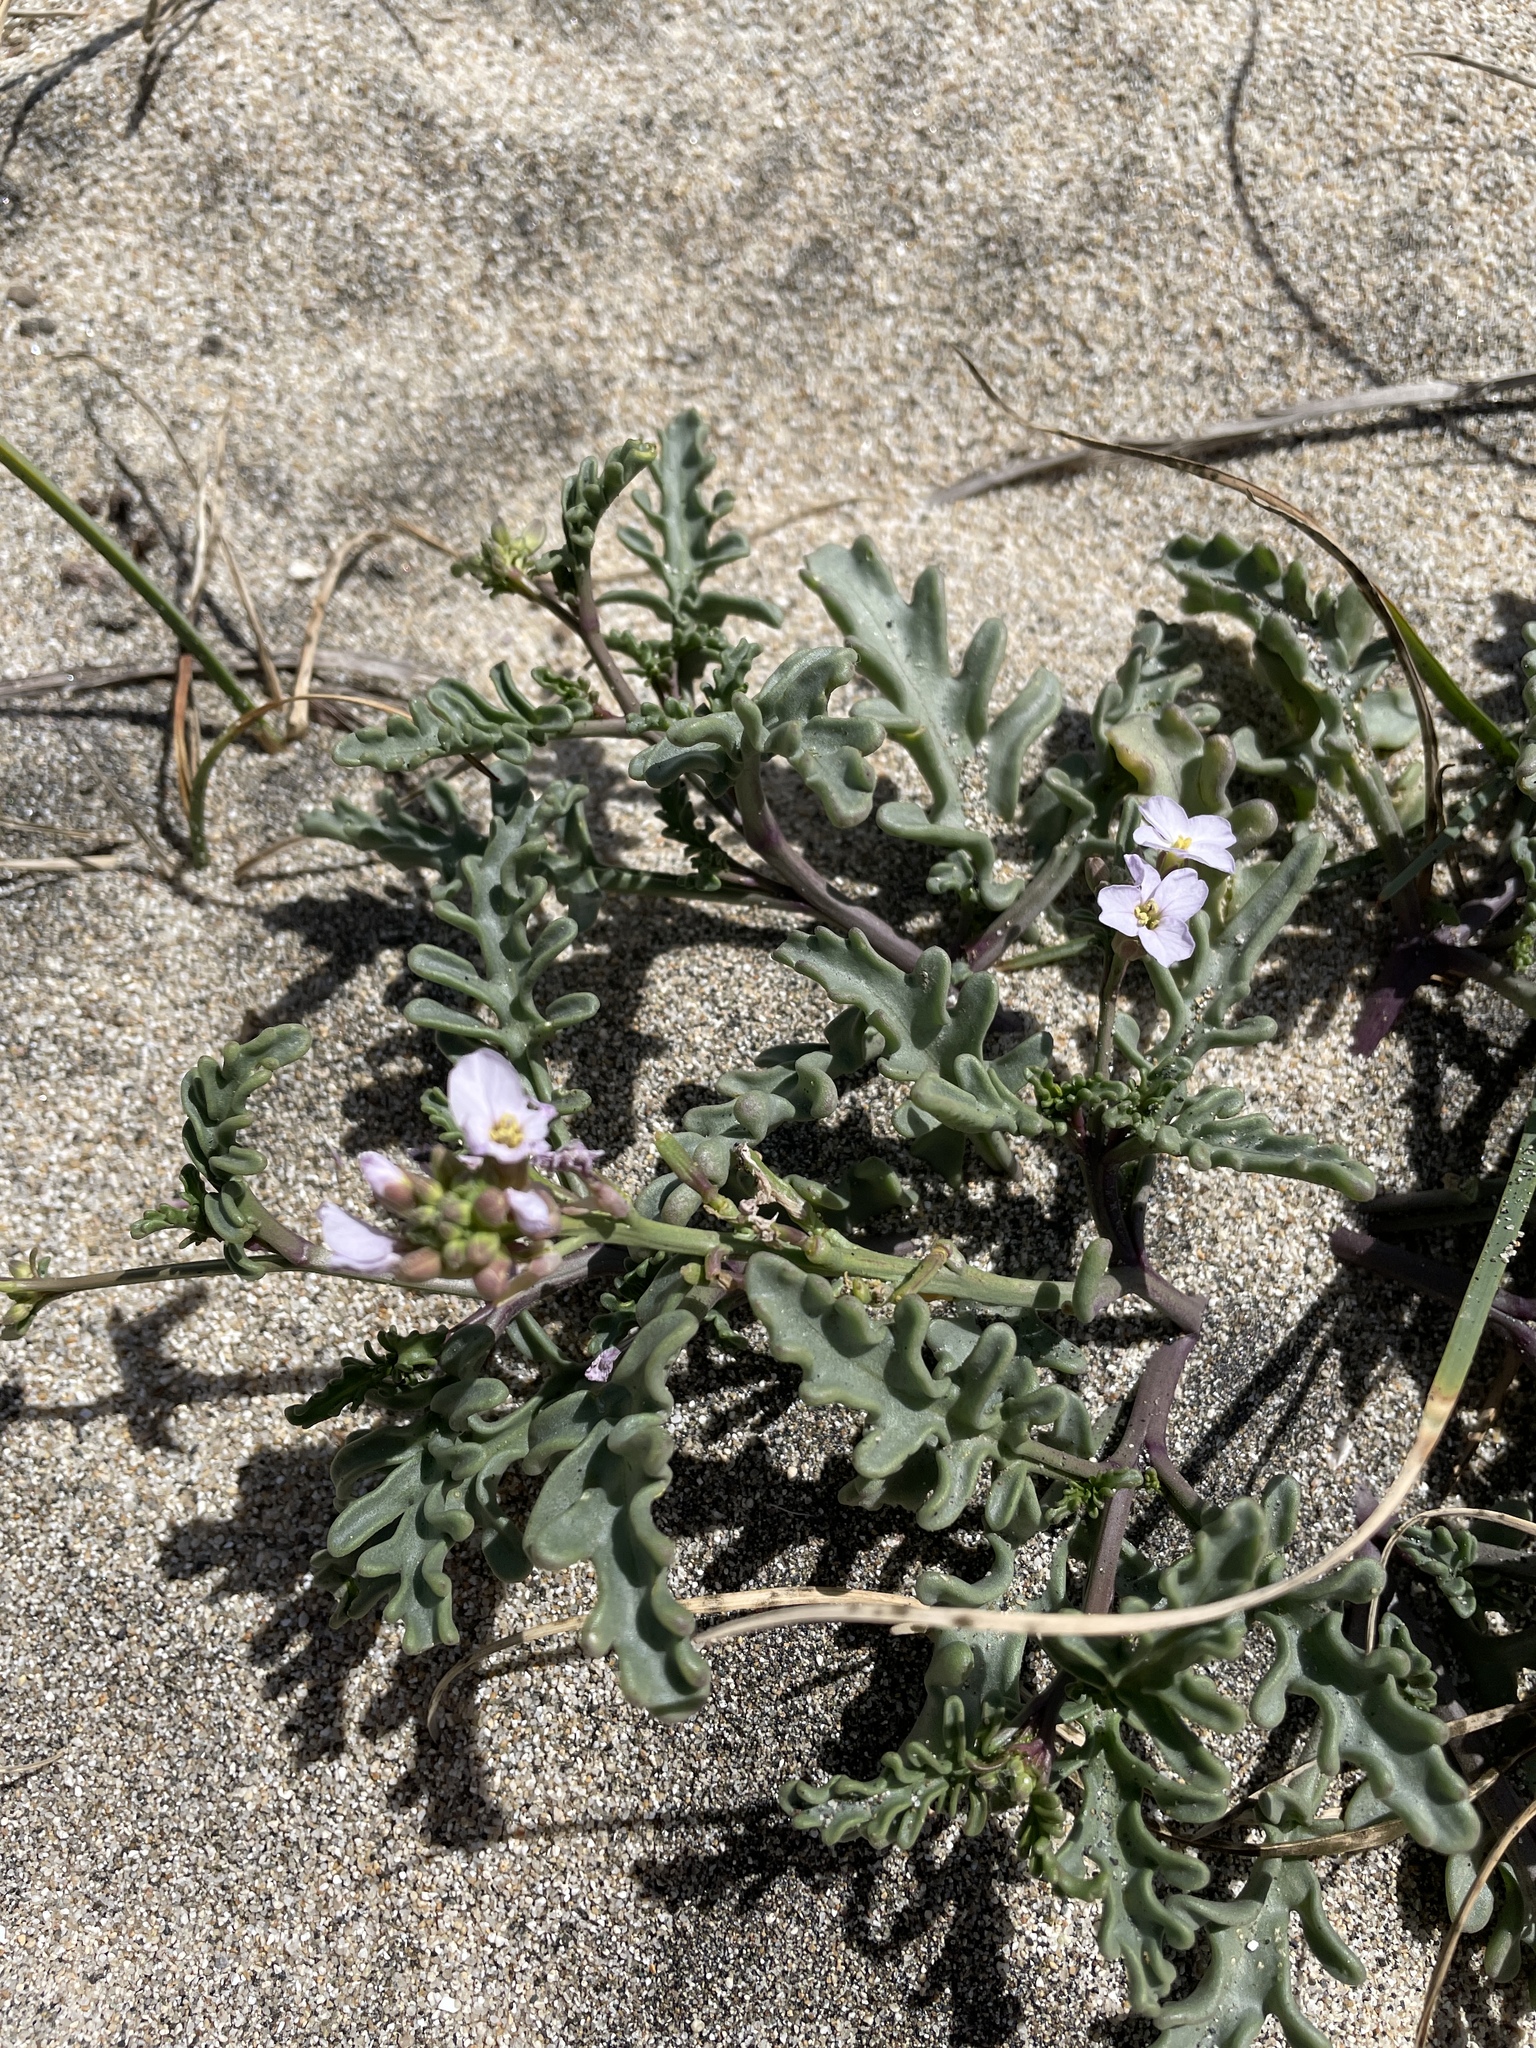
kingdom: Plantae
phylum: Tracheophyta
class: Magnoliopsida
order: Brassicales
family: Brassicaceae
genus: Cakile
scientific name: Cakile maritima
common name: Sea rocket
